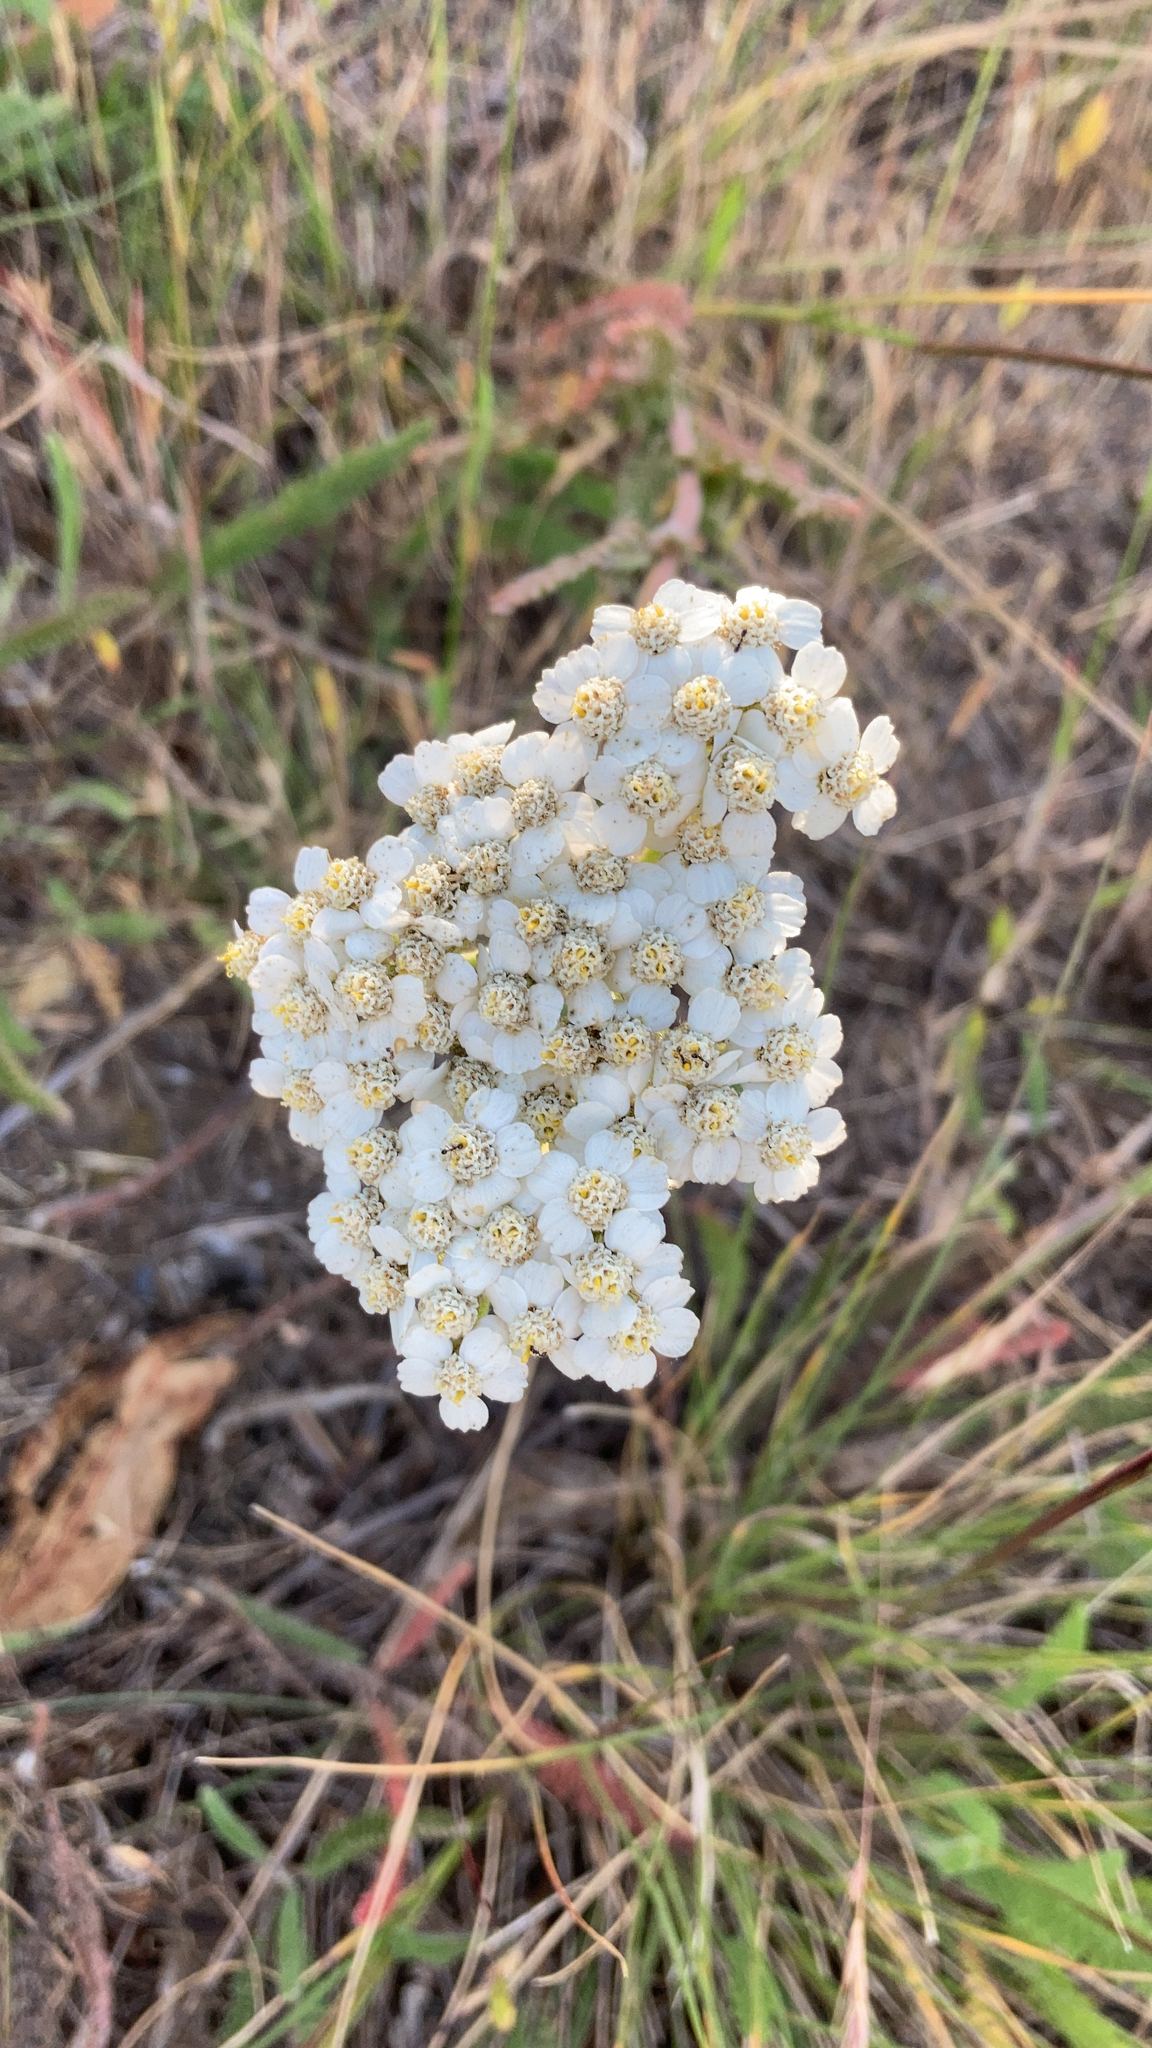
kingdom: Plantae
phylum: Tracheophyta
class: Magnoliopsida
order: Asterales
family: Asteraceae
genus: Achillea
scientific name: Achillea millefolium
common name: Yarrow
